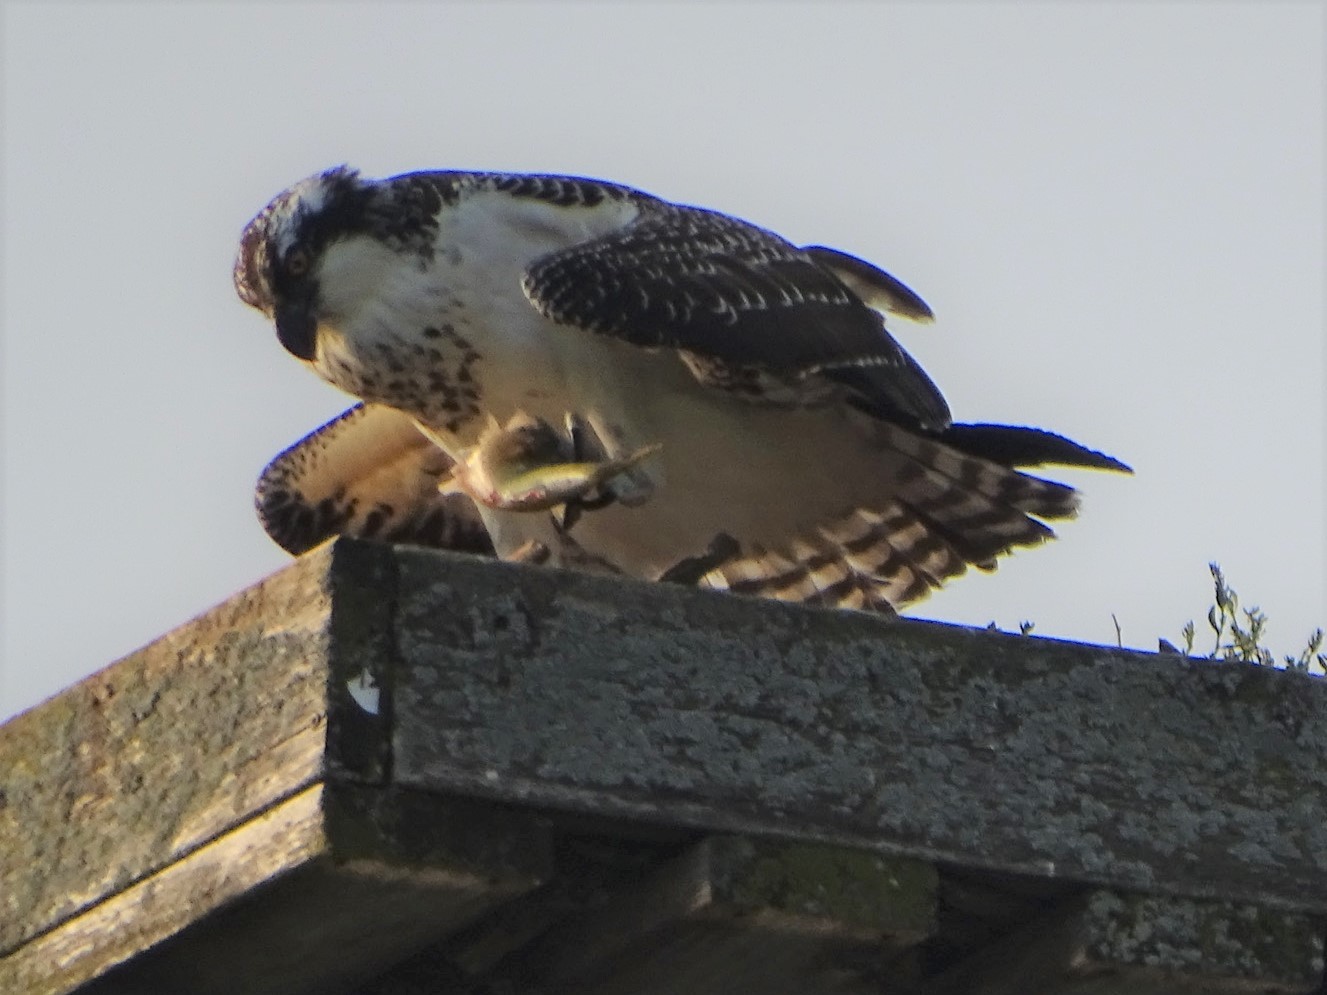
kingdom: Animalia
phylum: Chordata
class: Aves
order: Accipitriformes
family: Pandionidae
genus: Pandion
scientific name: Pandion haliaetus
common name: Osprey
